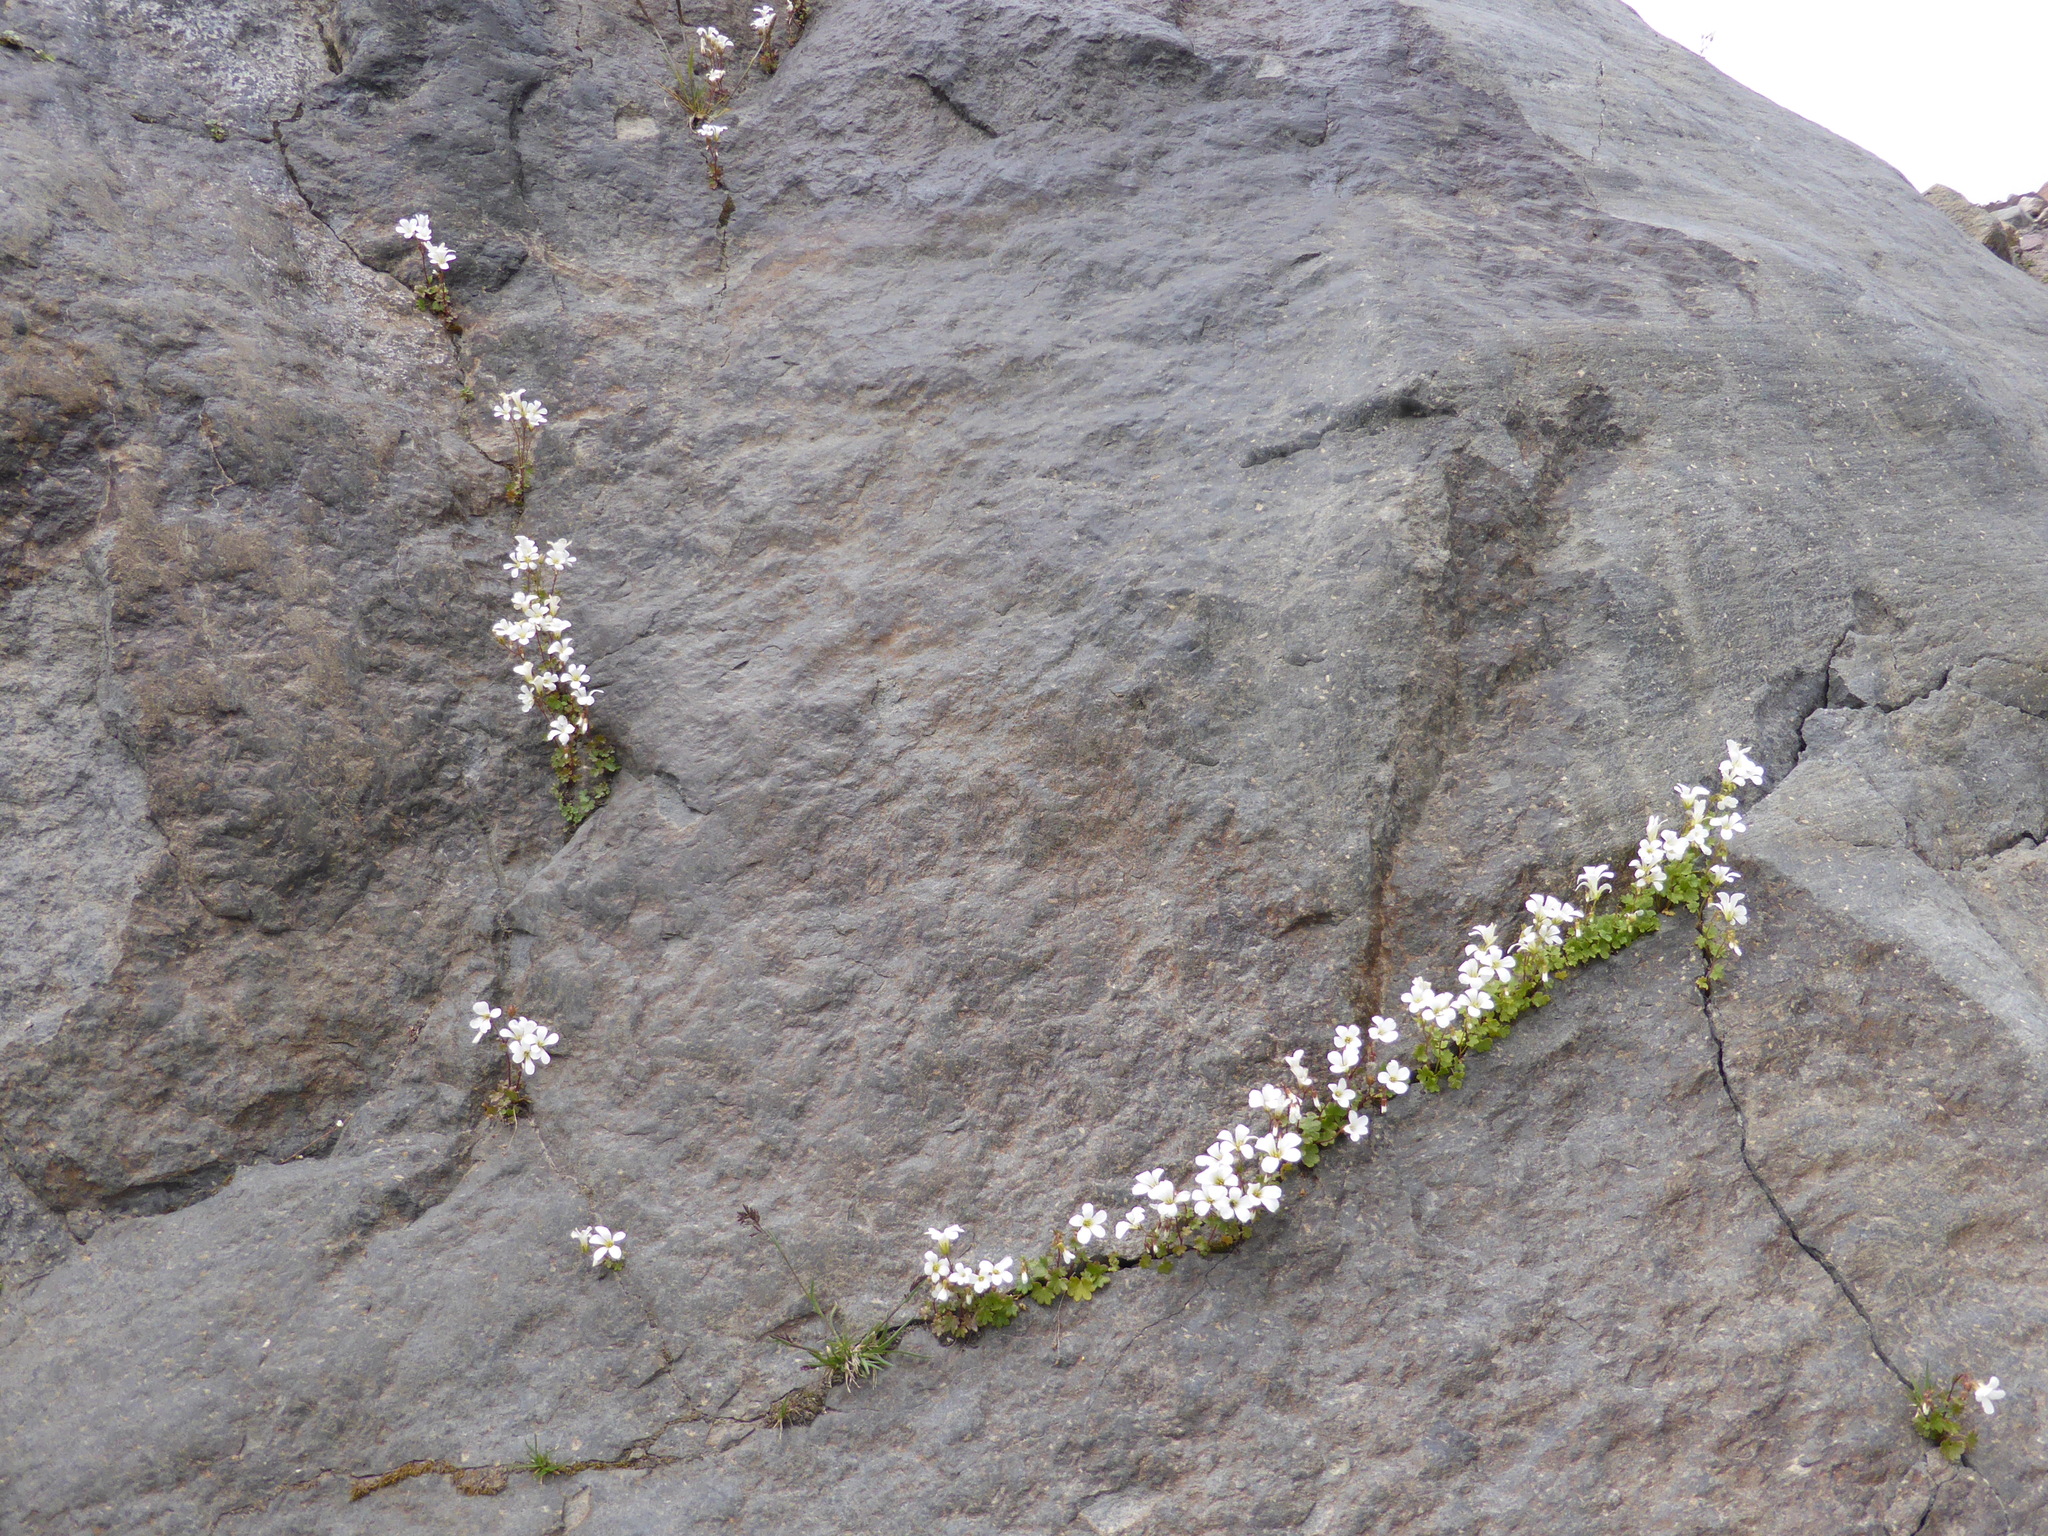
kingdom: Plantae
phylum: Tracheophyta
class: Magnoliopsida
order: Saxifragales
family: Saxifragaceae
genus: Saxifraga
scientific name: Saxifraga sibirica
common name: Siberian saxifrage
